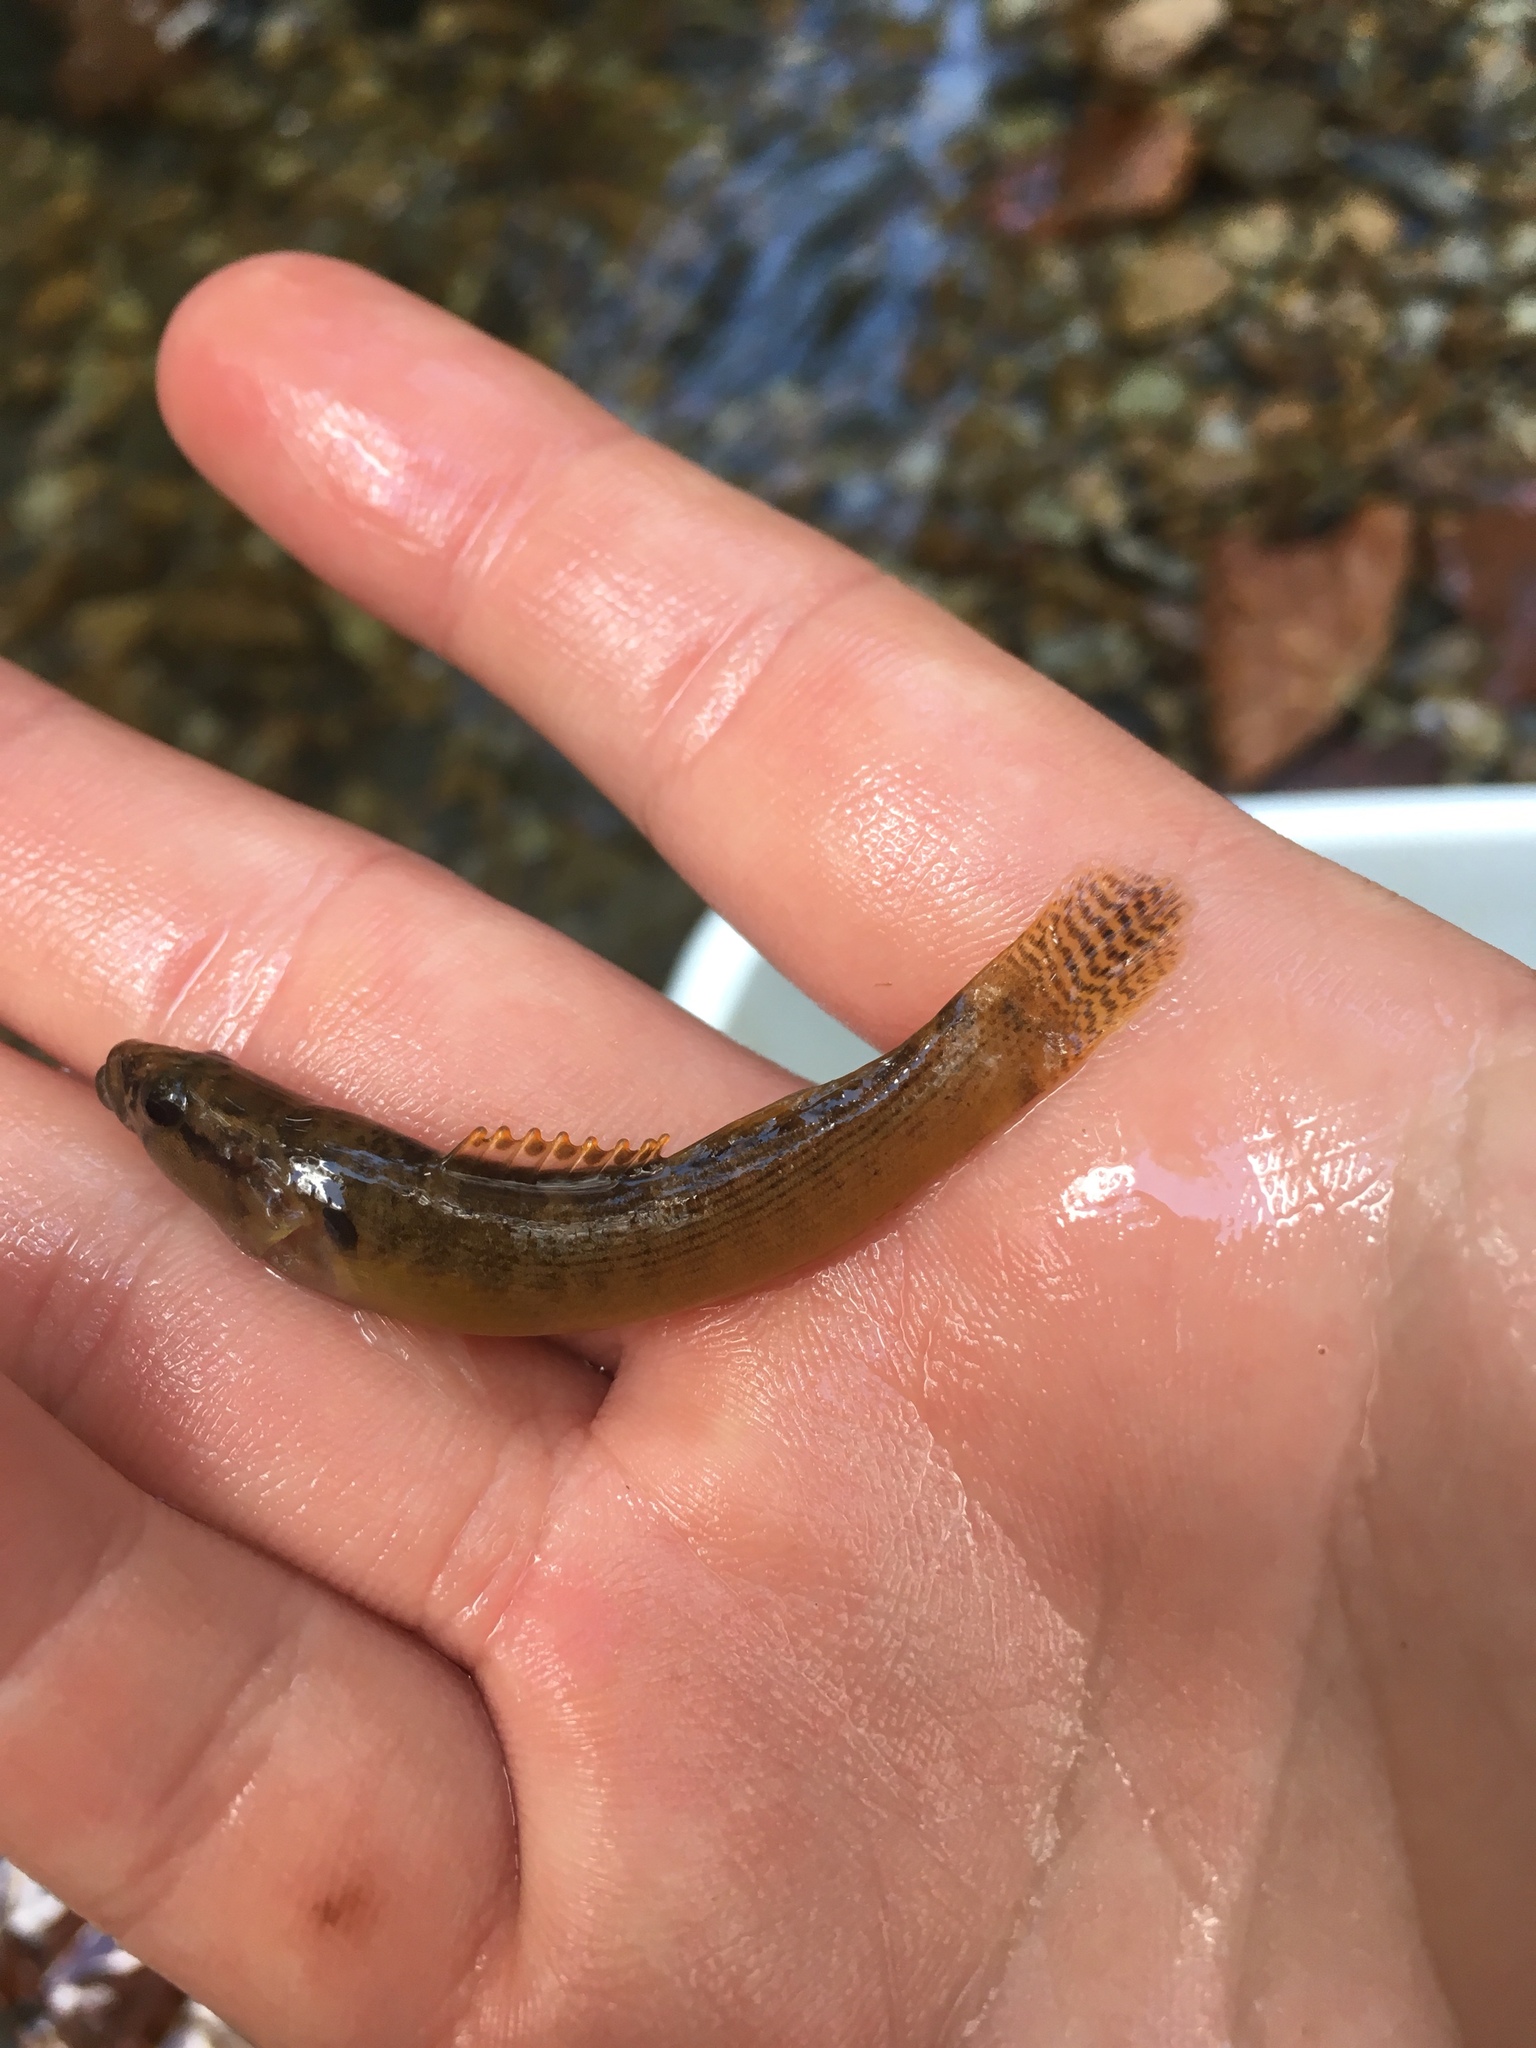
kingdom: Animalia
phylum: Chordata
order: Perciformes
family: Percidae
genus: Etheostoma
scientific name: Etheostoma flabellare
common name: Fantail darter
